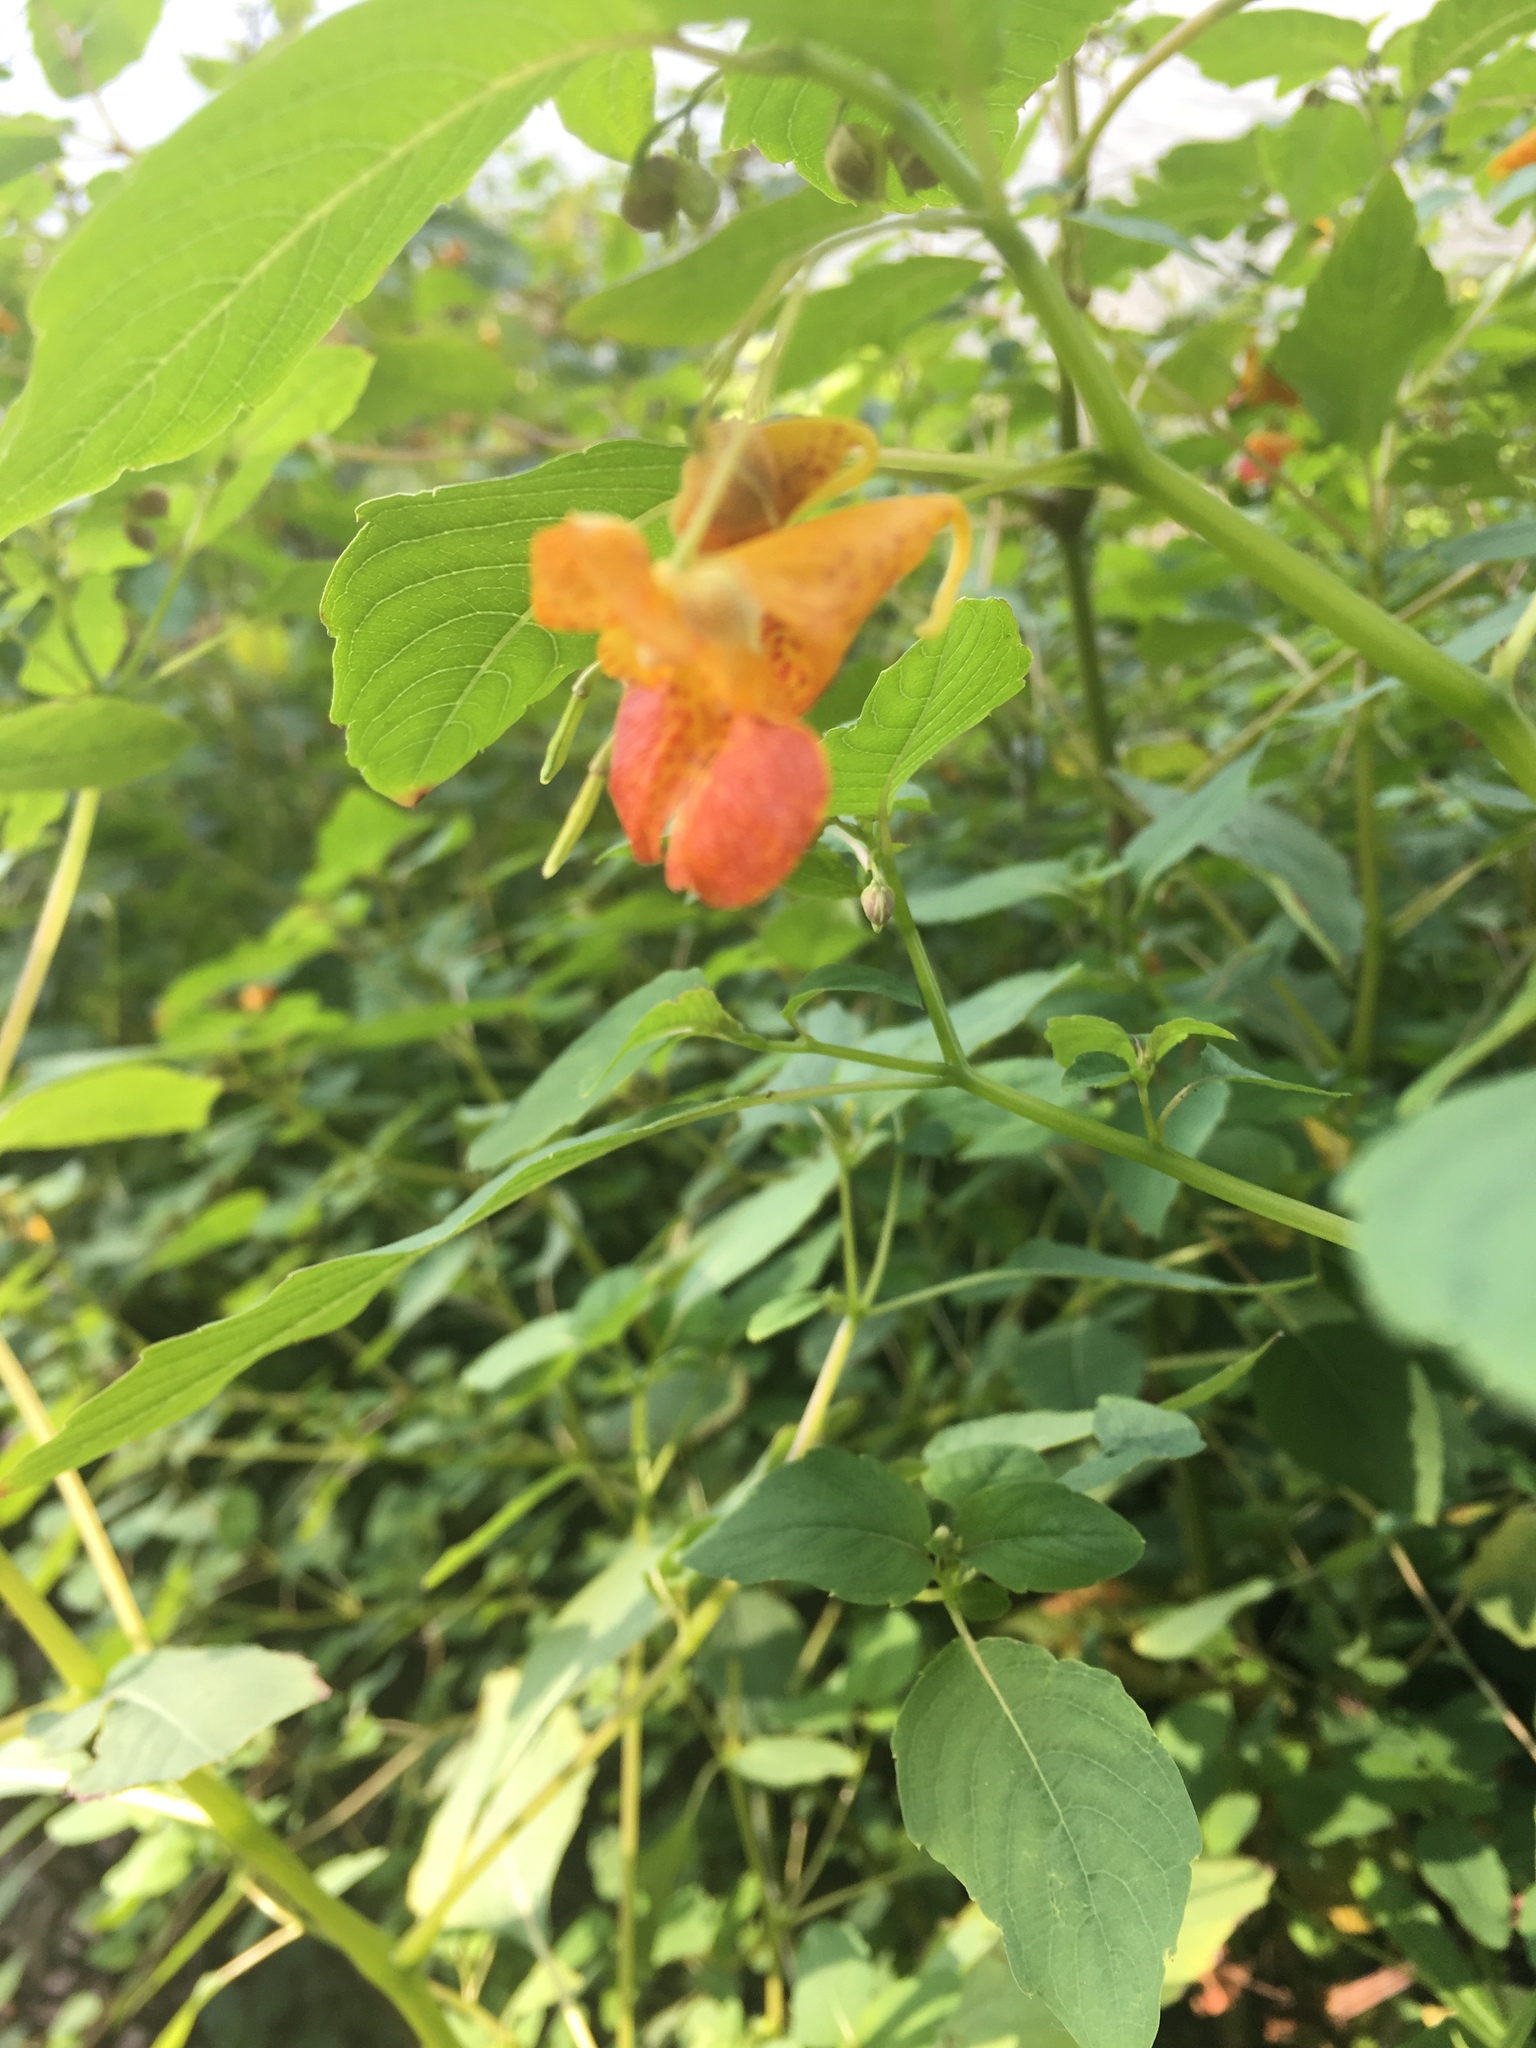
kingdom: Plantae
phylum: Tracheophyta
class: Magnoliopsida
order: Ericales
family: Balsaminaceae
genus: Impatiens
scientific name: Impatiens capensis
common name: Orange balsam
